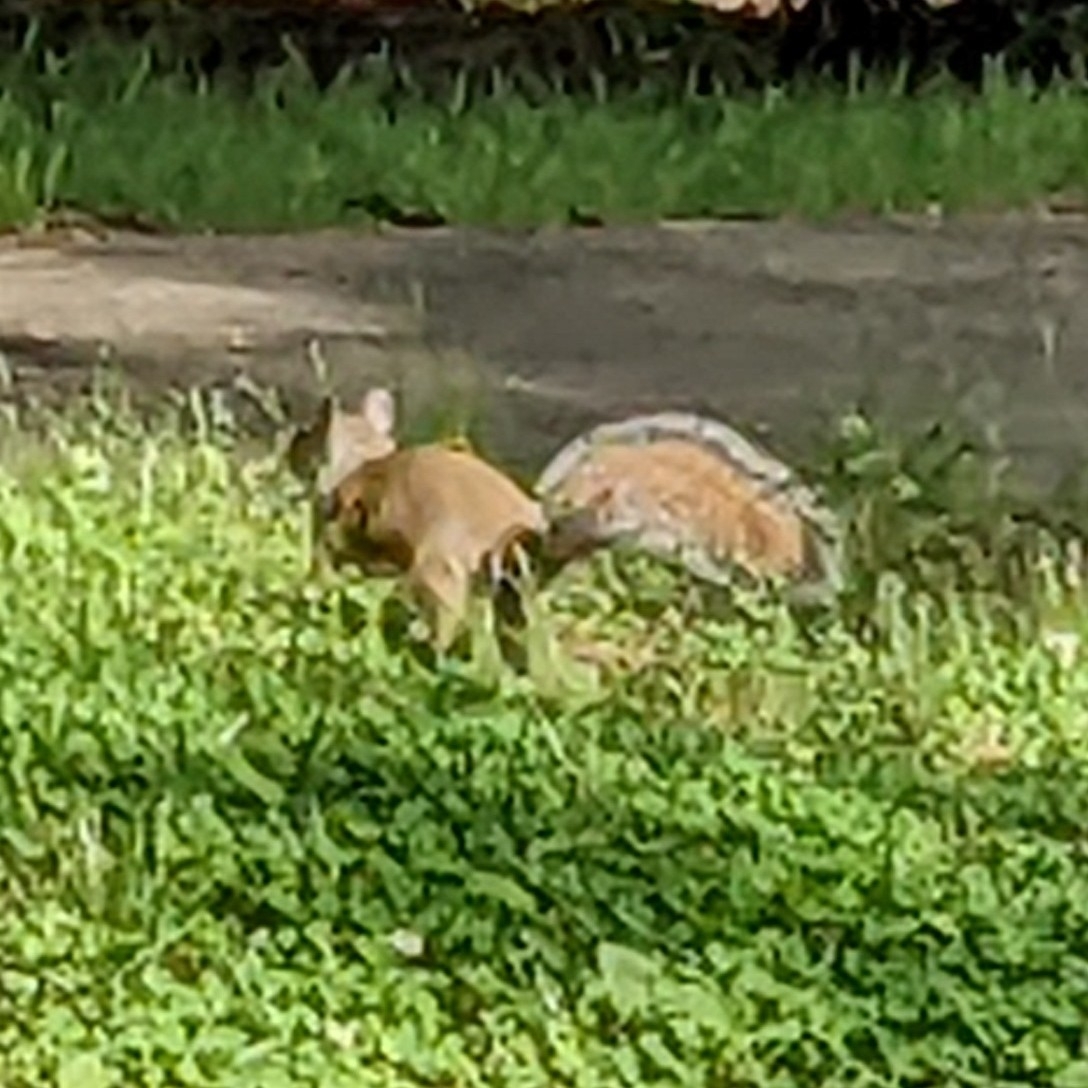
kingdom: Animalia
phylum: Chordata
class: Mammalia
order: Rodentia
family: Sciuridae
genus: Sciurus
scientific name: Sciurus carolinensis
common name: Eastern gray squirrel
